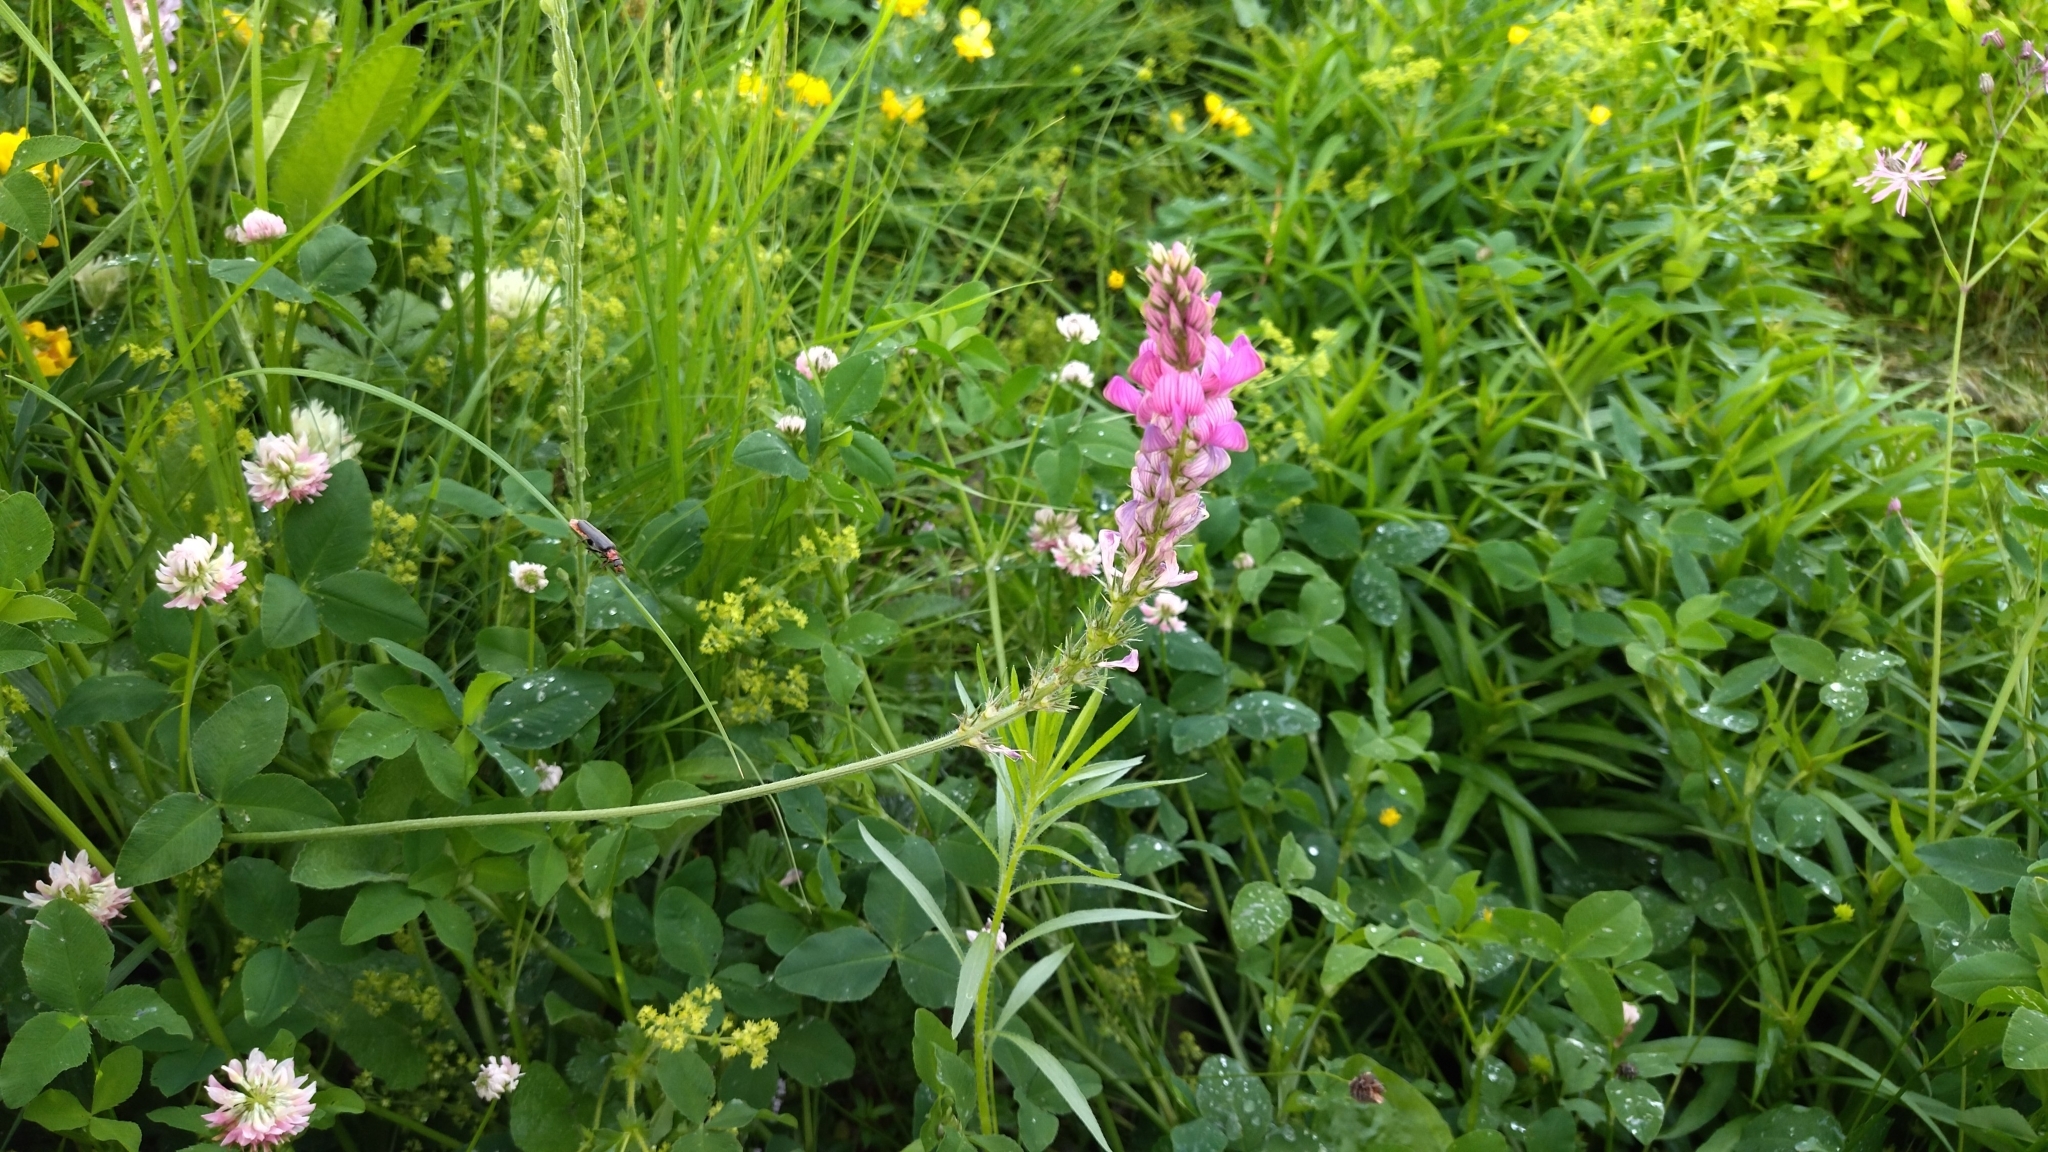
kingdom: Plantae
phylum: Tracheophyta
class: Magnoliopsida
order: Fabales
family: Fabaceae
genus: Onobrychis
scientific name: Onobrychis viciifolia
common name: Sainfoin
